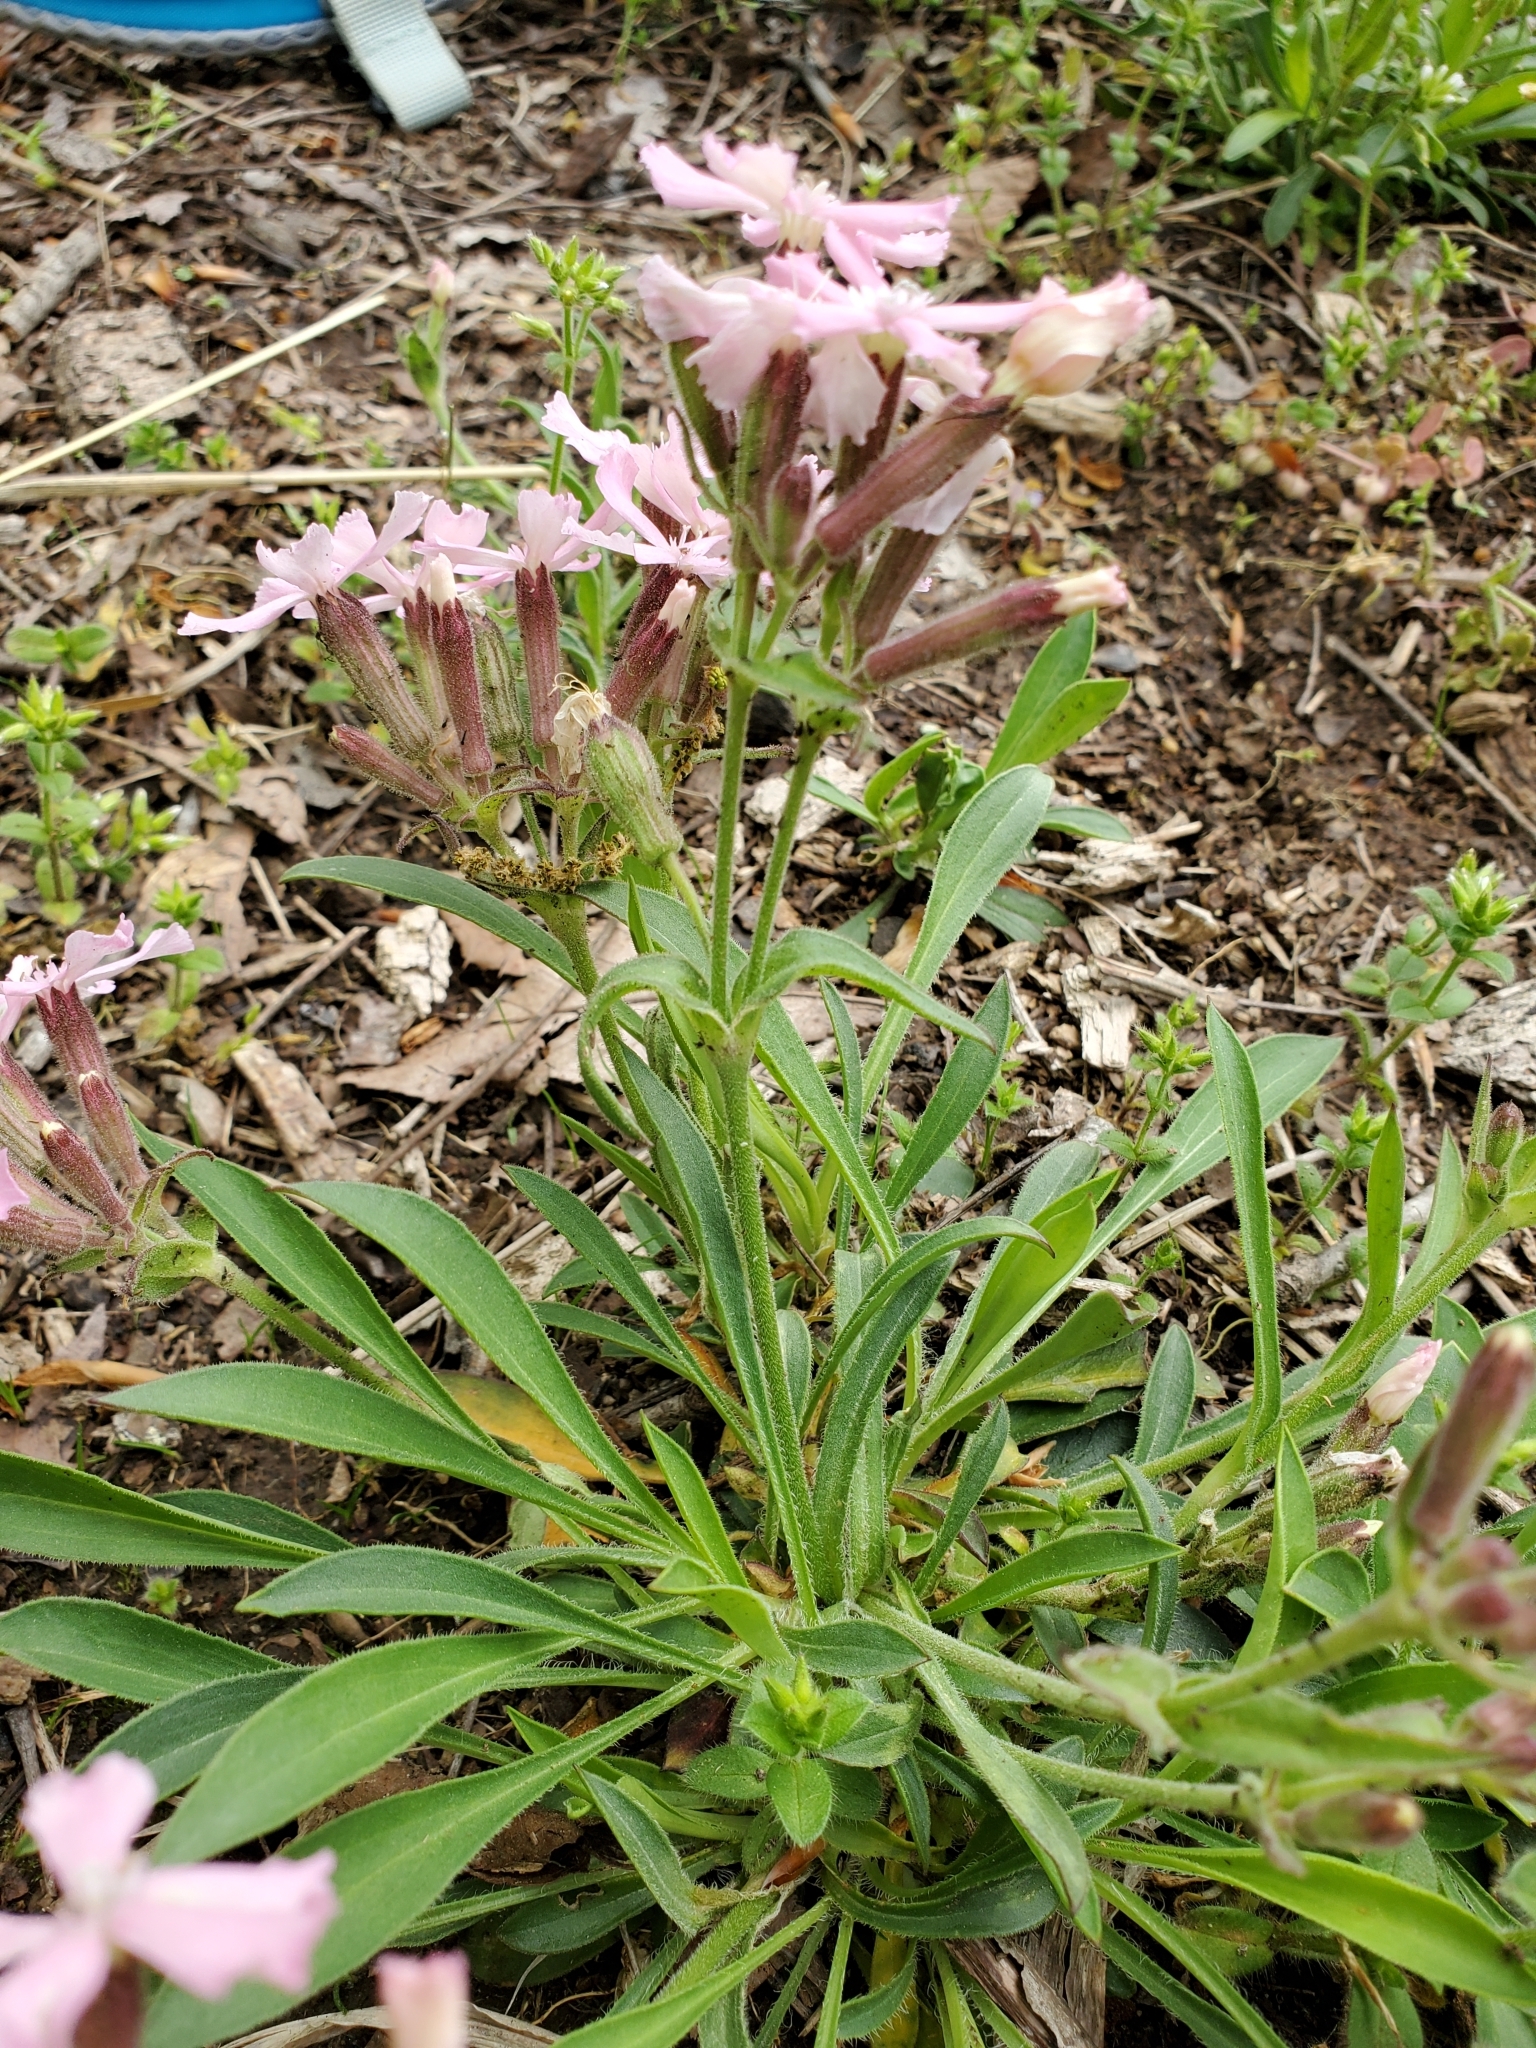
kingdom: Plantae
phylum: Tracheophyta
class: Magnoliopsida
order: Caryophyllales
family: Caryophyllaceae
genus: Silene
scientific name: Silene caroliniana
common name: Sticky catchfly
